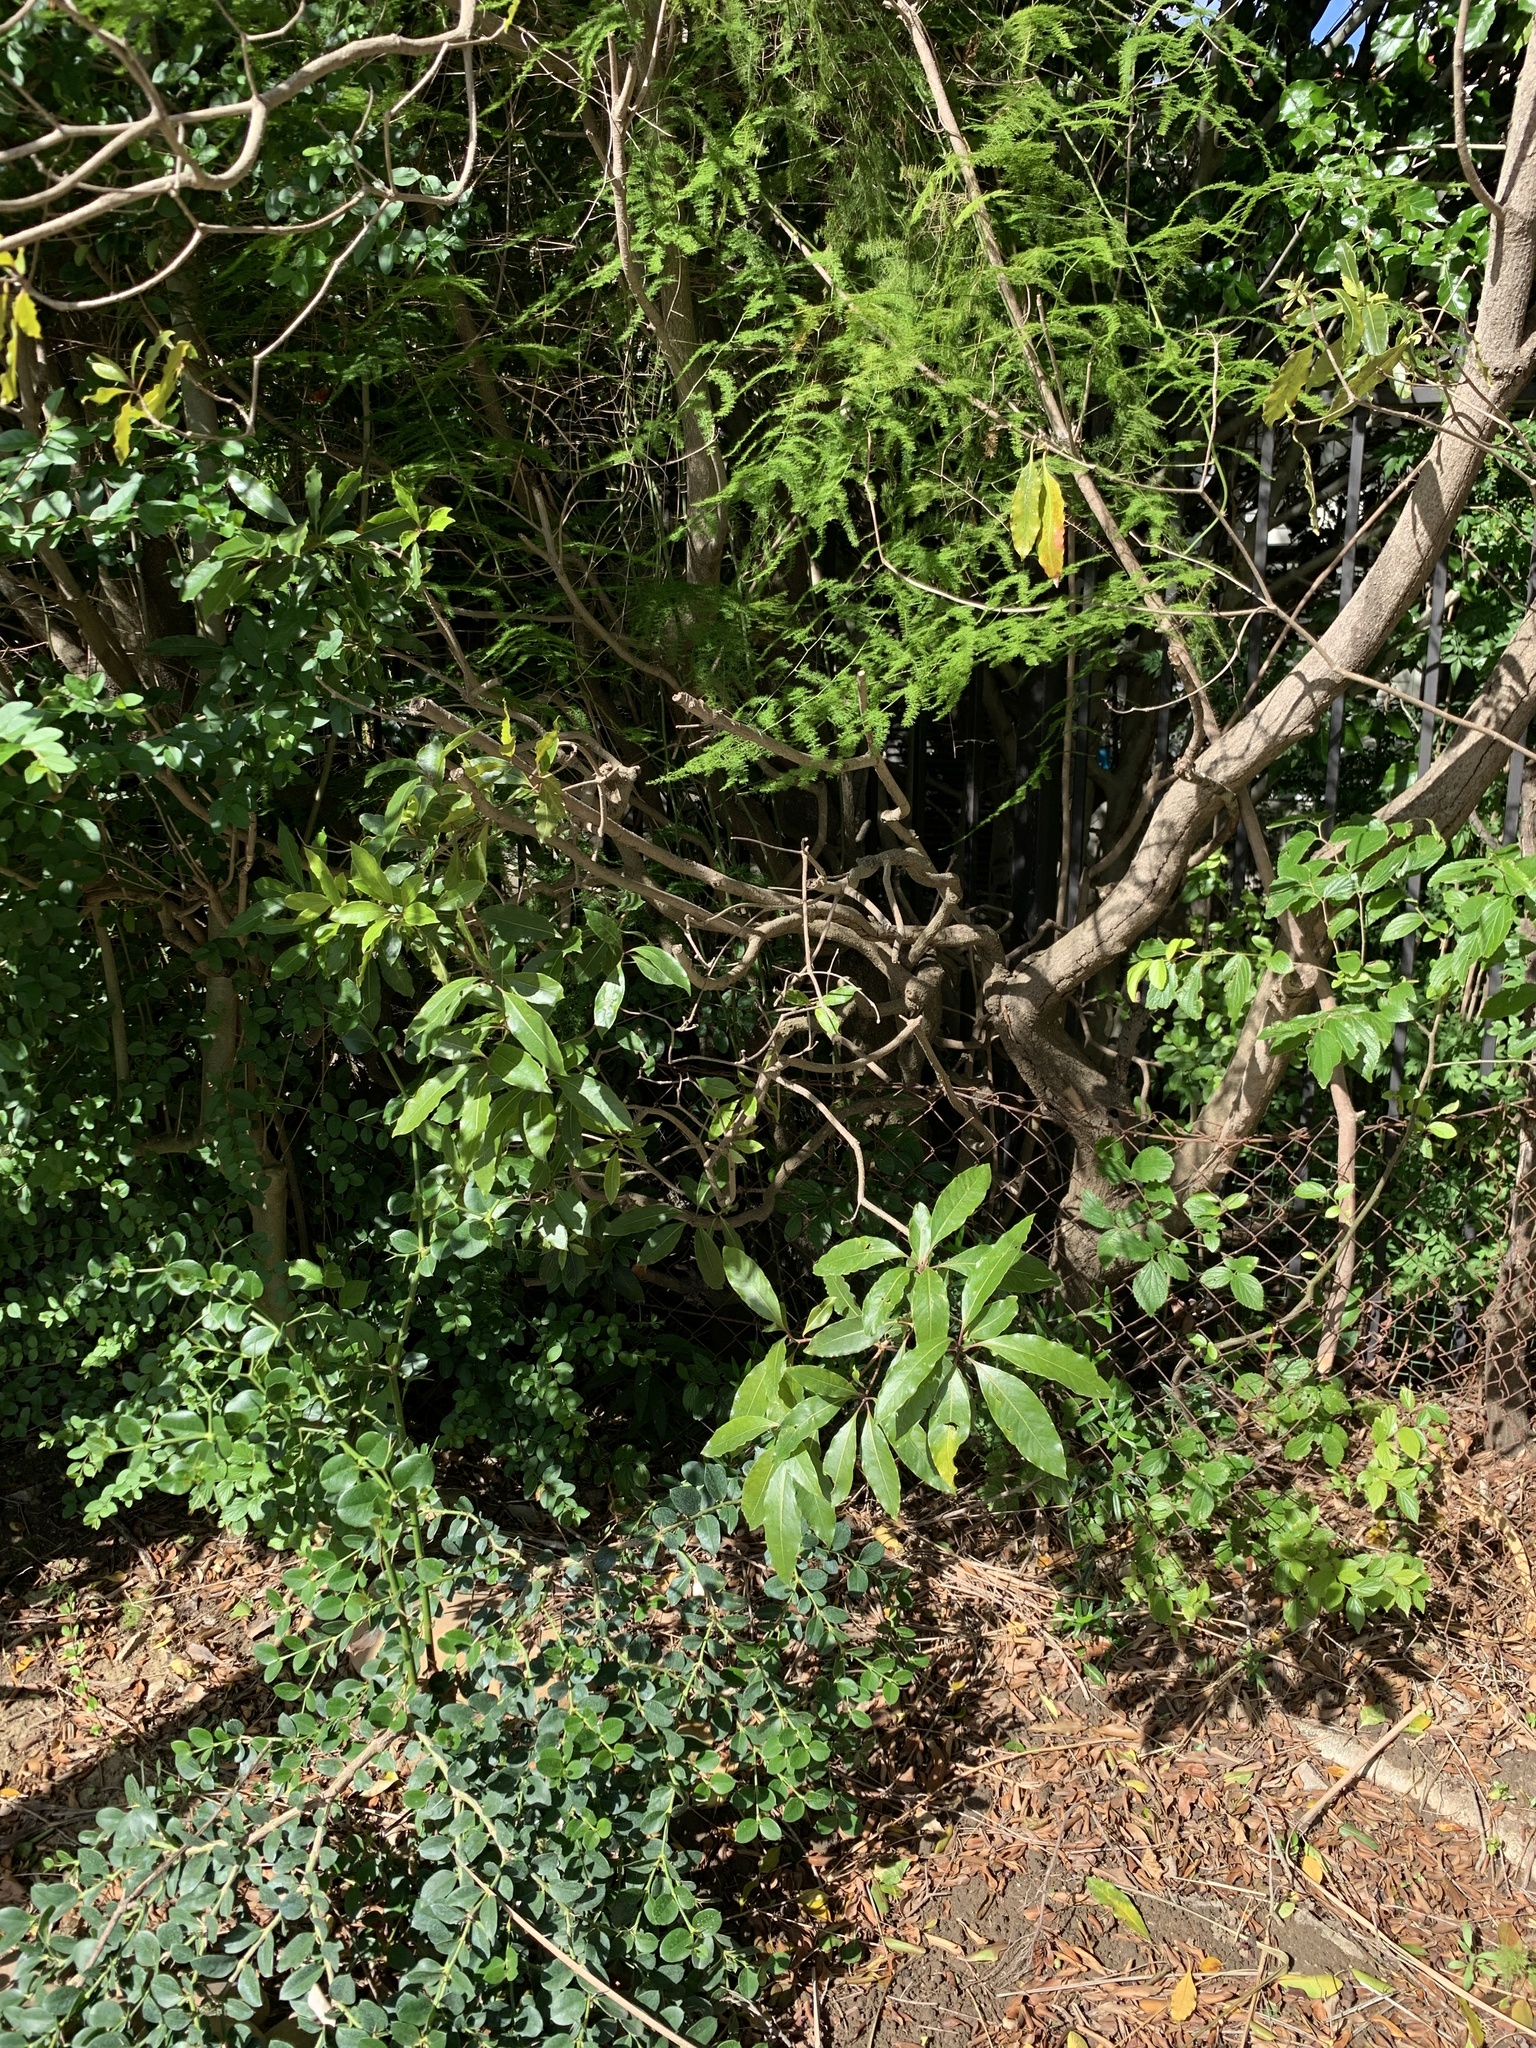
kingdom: Plantae
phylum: Tracheophyta
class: Magnoliopsida
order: Apiales
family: Pittosporaceae
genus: Pittosporum
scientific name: Pittosporum undulatum
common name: Australian cheesewood
